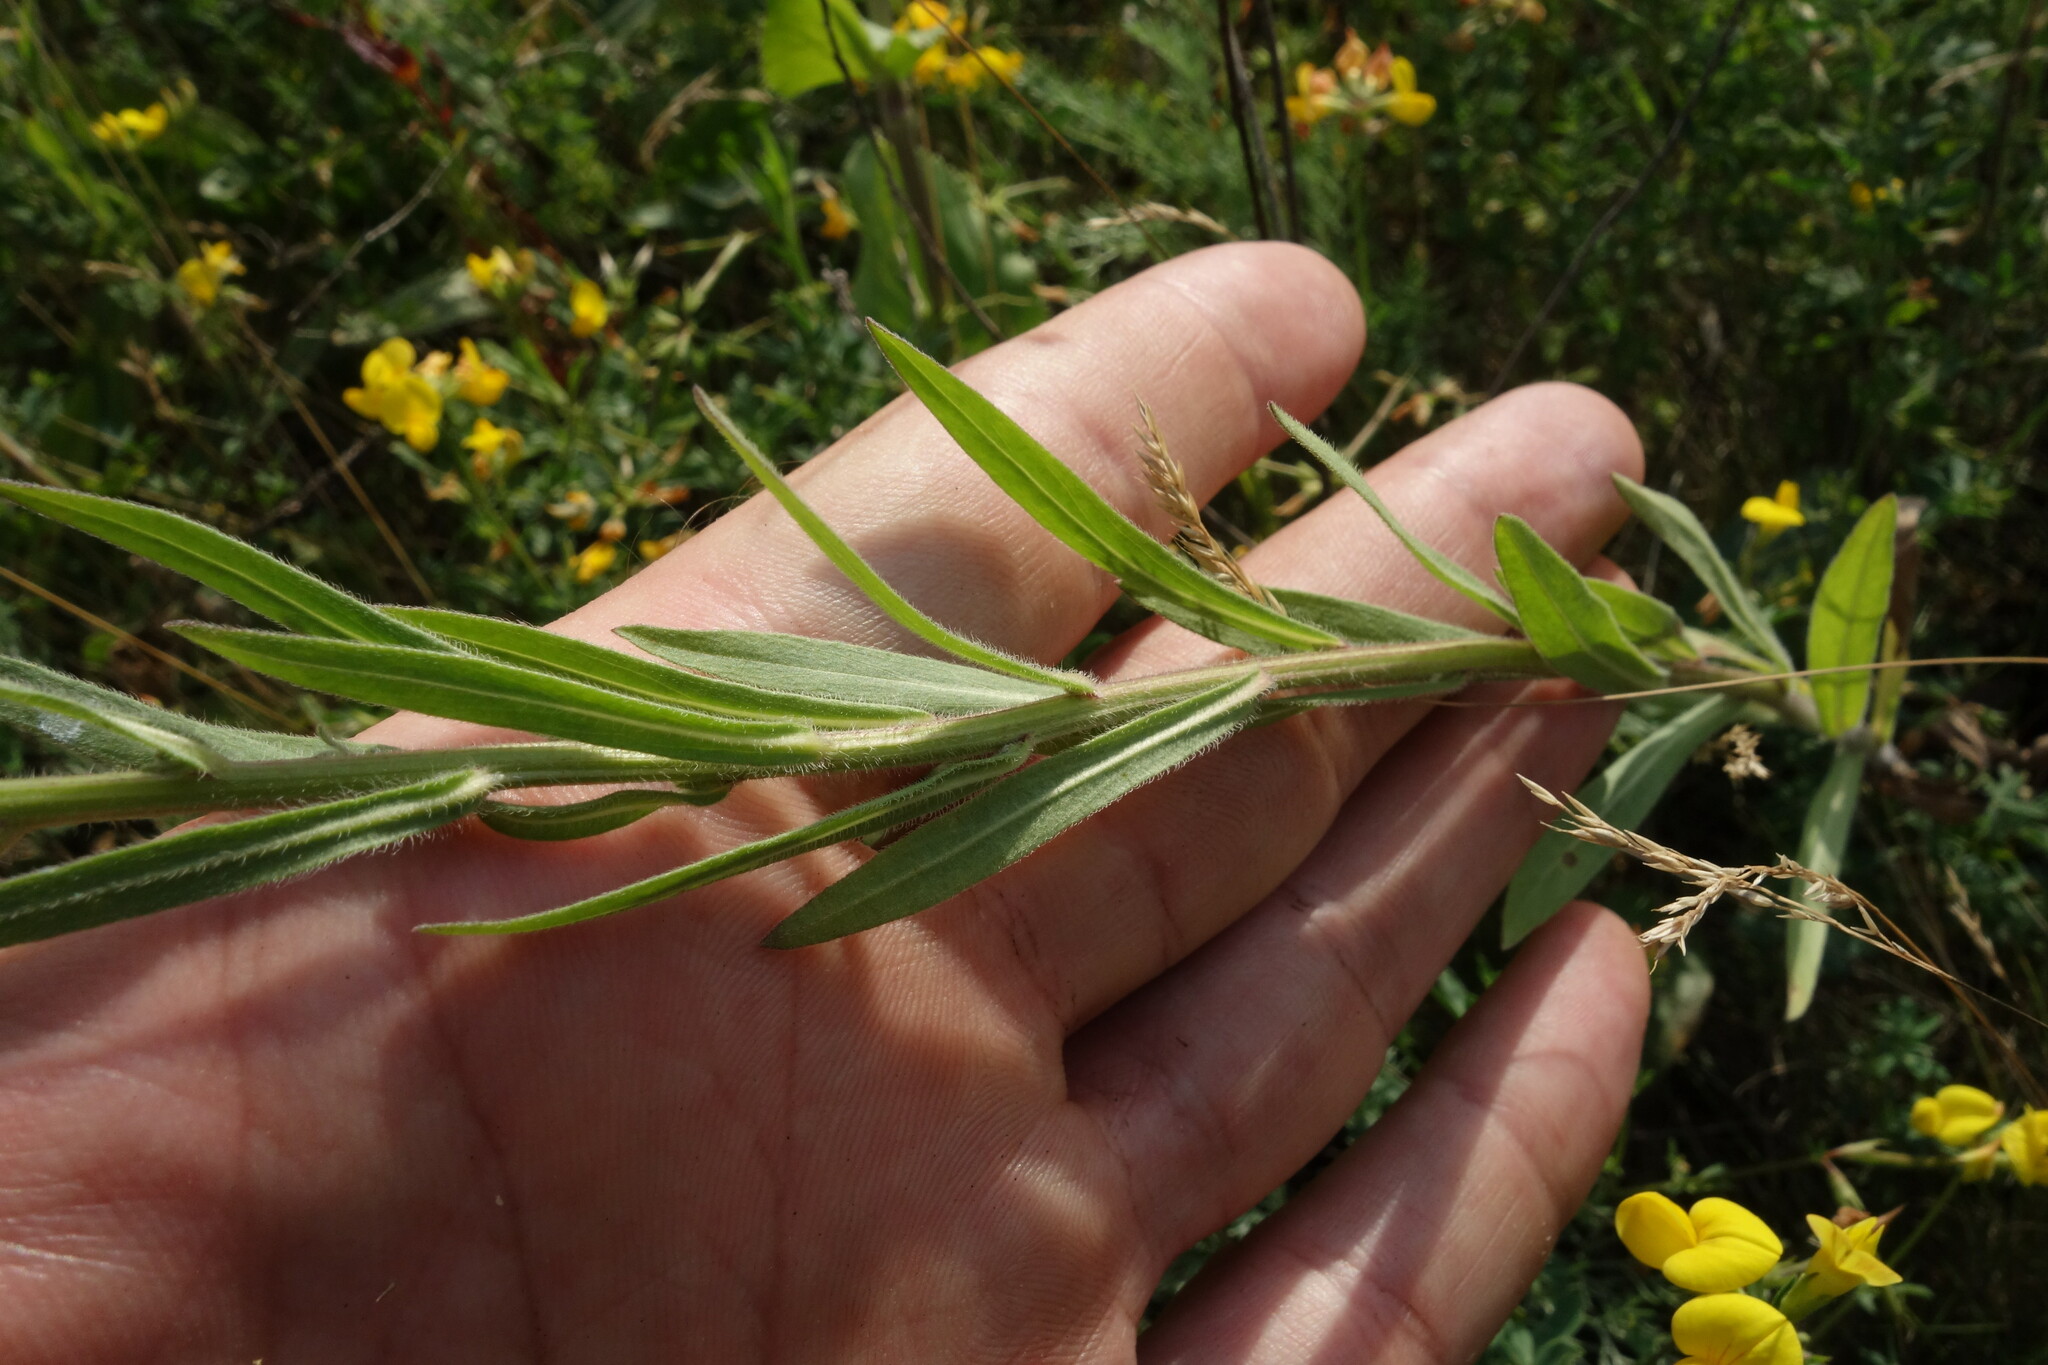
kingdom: Plantae
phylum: Tracheophyta
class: Magnoliopsida
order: Asterales
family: Asteraceae
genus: Erigeron
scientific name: Erigeron acris
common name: Blue fleabane
